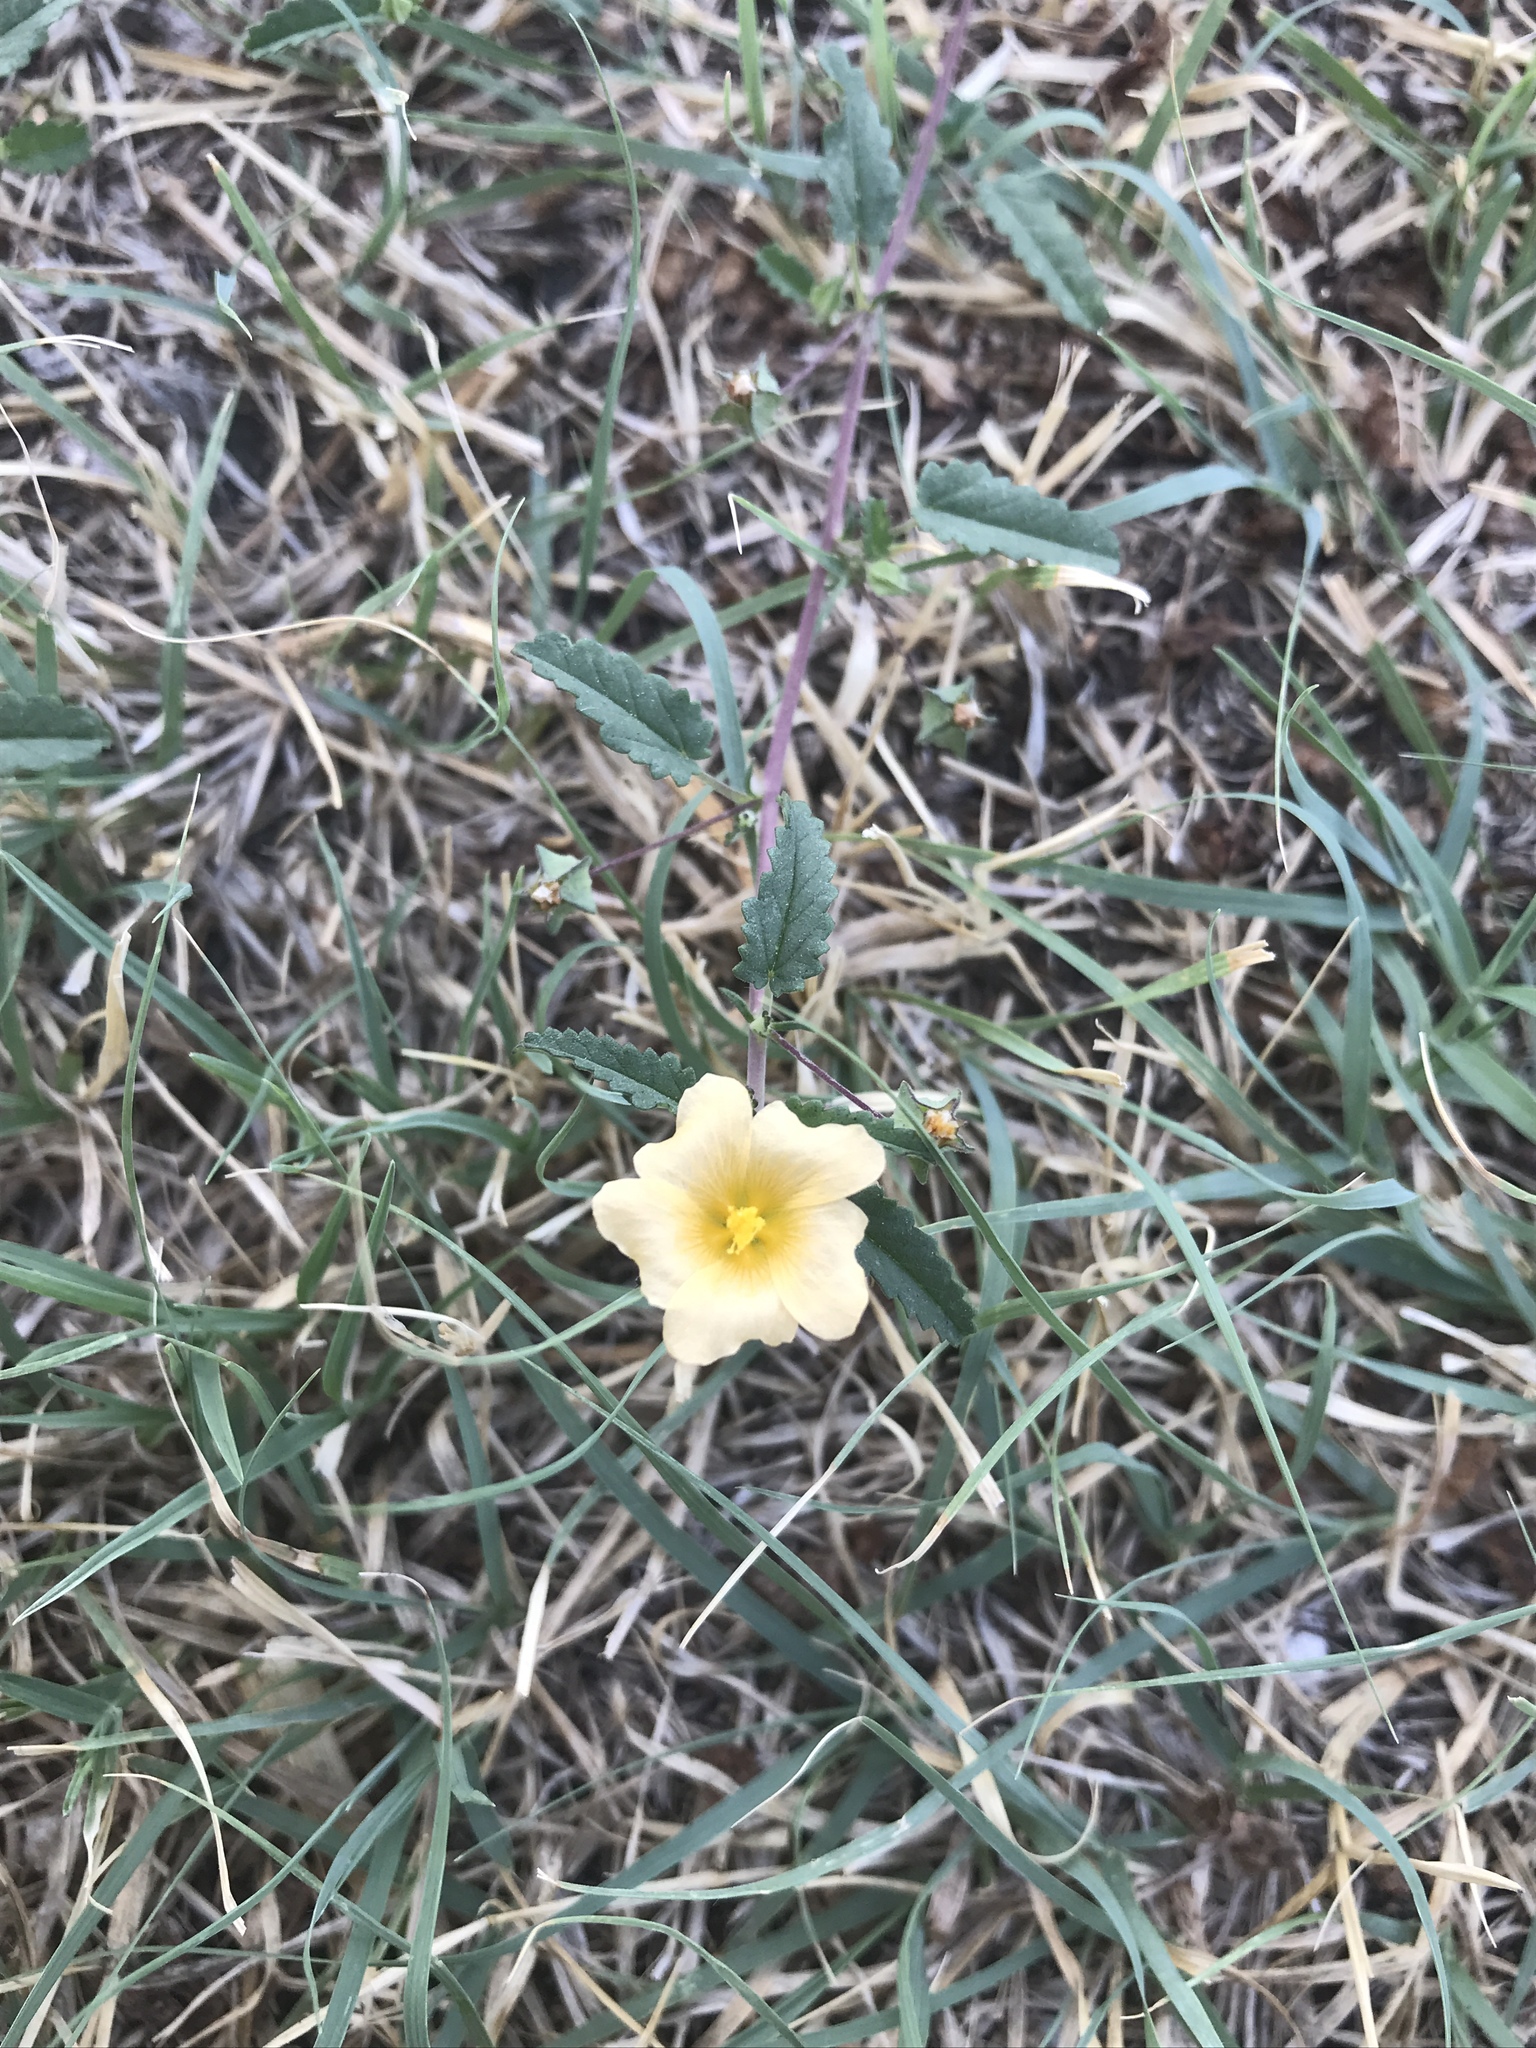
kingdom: Plantae
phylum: Tracheophyta
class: Magnoliopsida
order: Malvales
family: Malvaceae
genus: Sida
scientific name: Sida abutilifolia
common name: Spreading fanpetals
